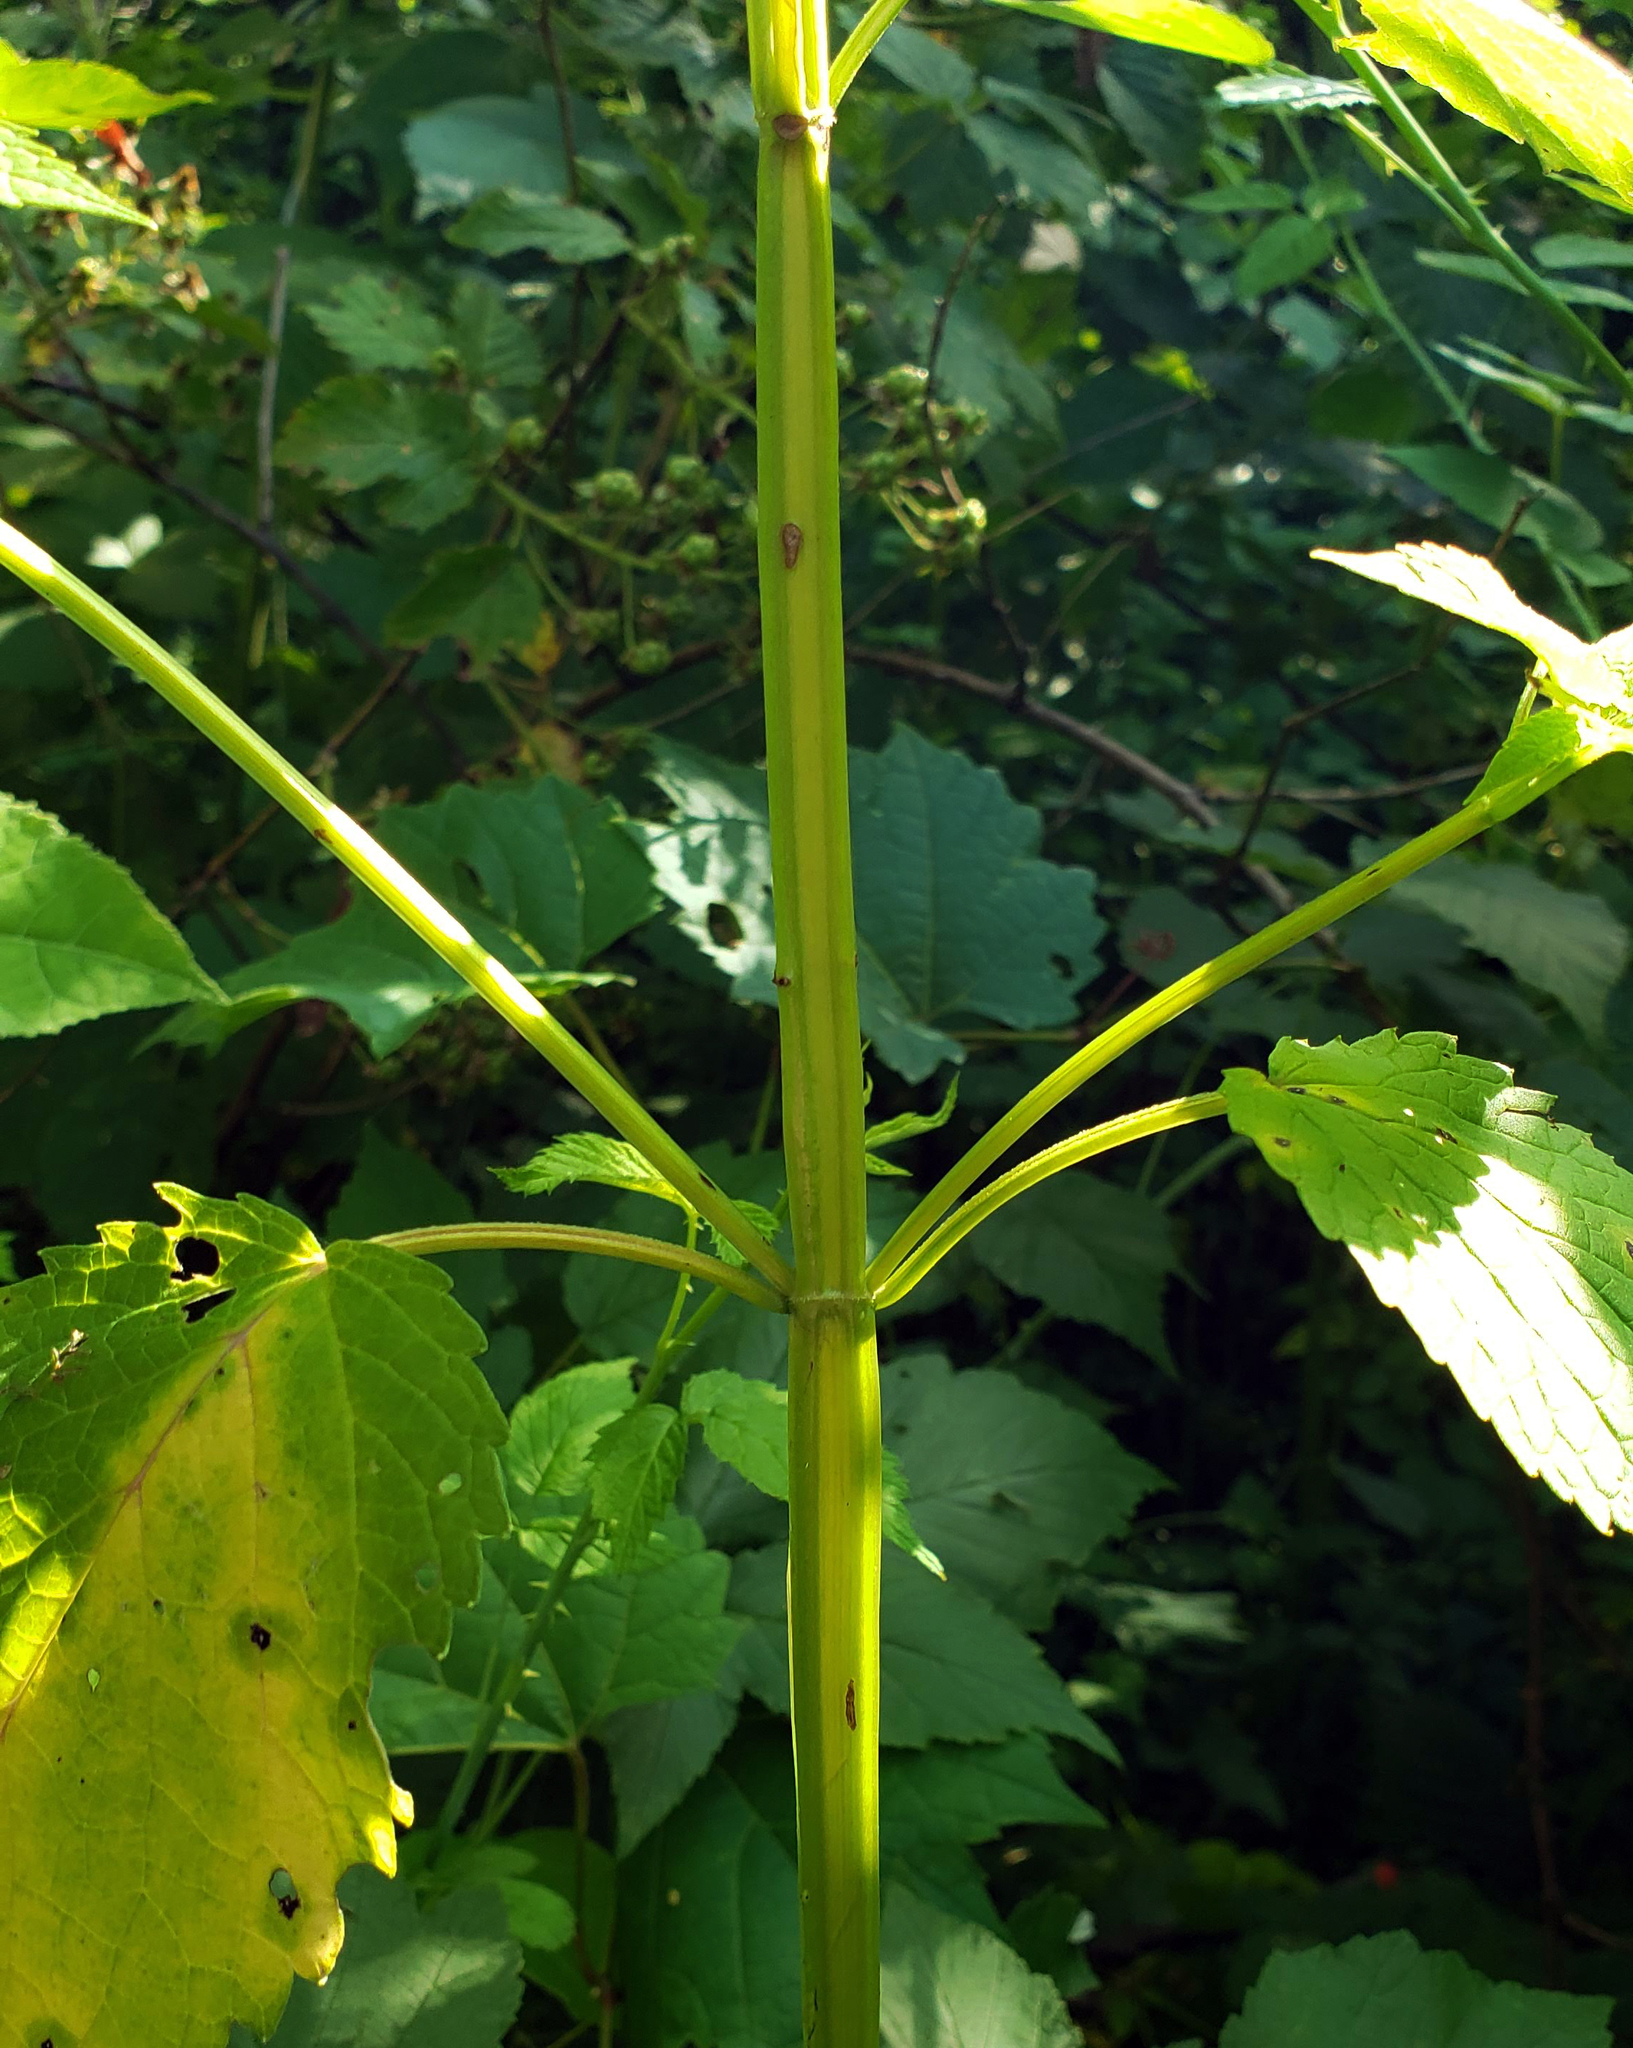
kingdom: Plantae
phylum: Tracheophyta
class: Magnoliopsida
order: Lamiales
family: Lamiaceae
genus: Agastache
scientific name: Agastache nepetoides
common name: Catnip giant hyssop
